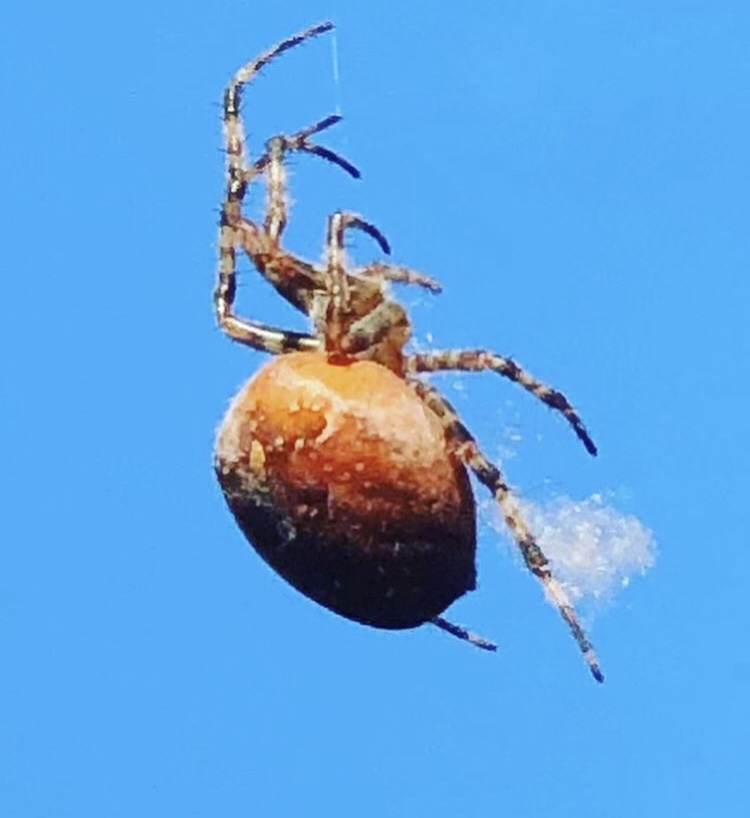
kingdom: Animalia
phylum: Arthropoda
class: Arachnida
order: Araneae
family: Araneidae
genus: Araneus
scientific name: Araneus diadematus
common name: Cross orbweaver
